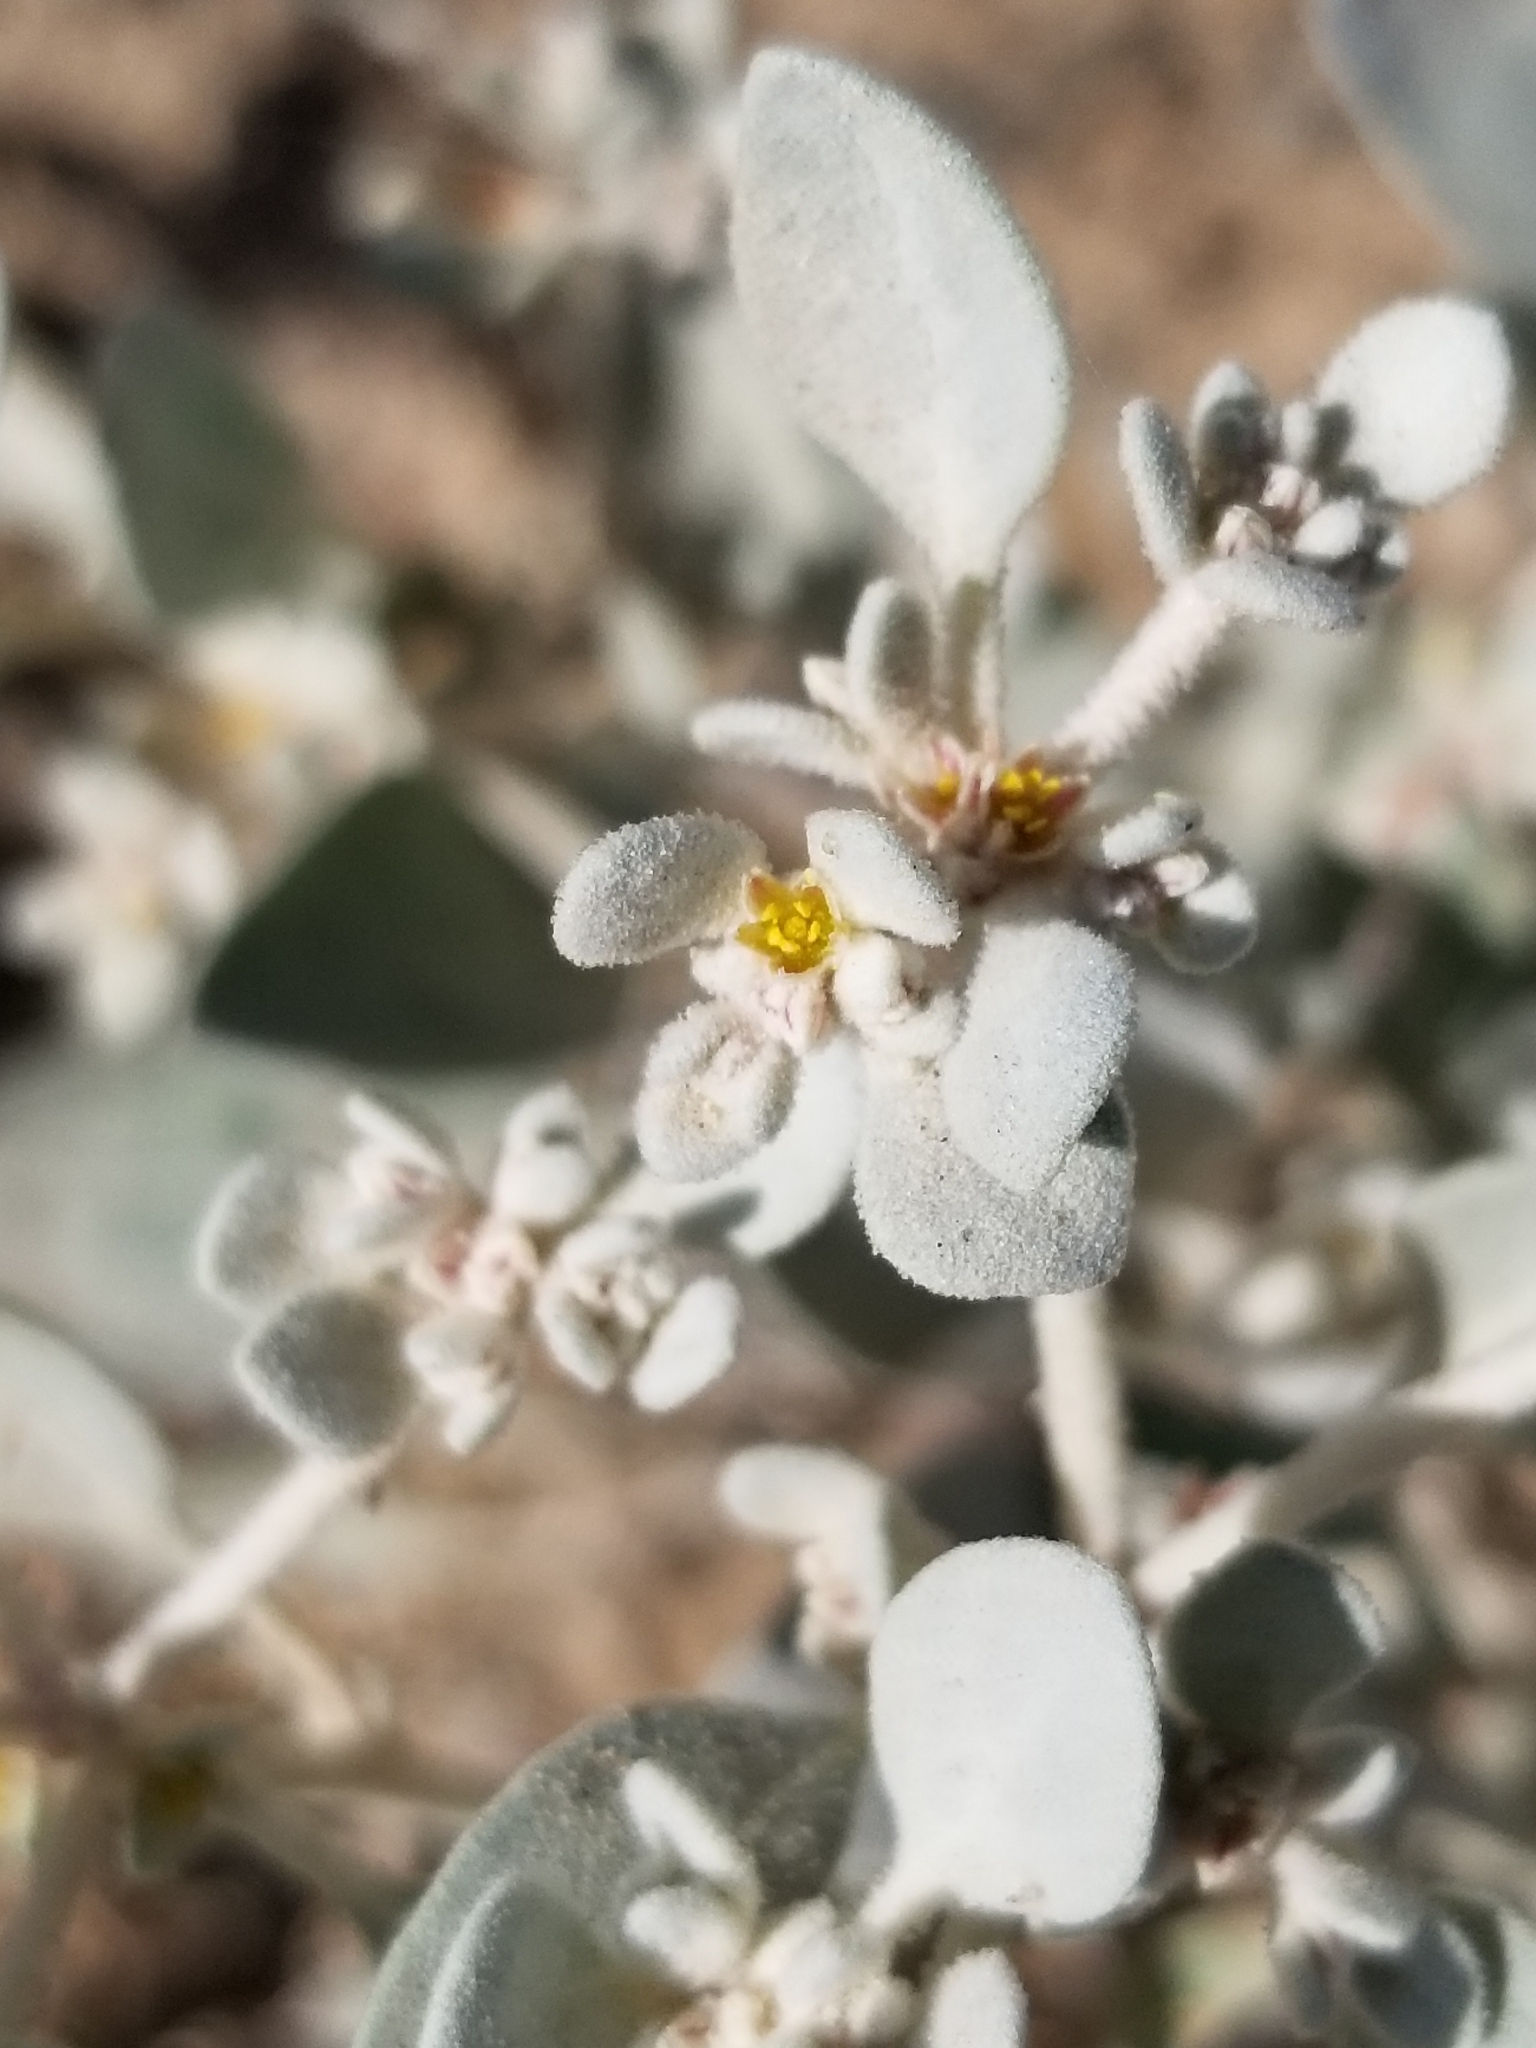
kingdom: Plantae
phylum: Tracheophyta
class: Magnoliopsida
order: Caryophyllales
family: Amaranthaceae
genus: Tidestromia
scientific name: Tidestromia suffruticosa
